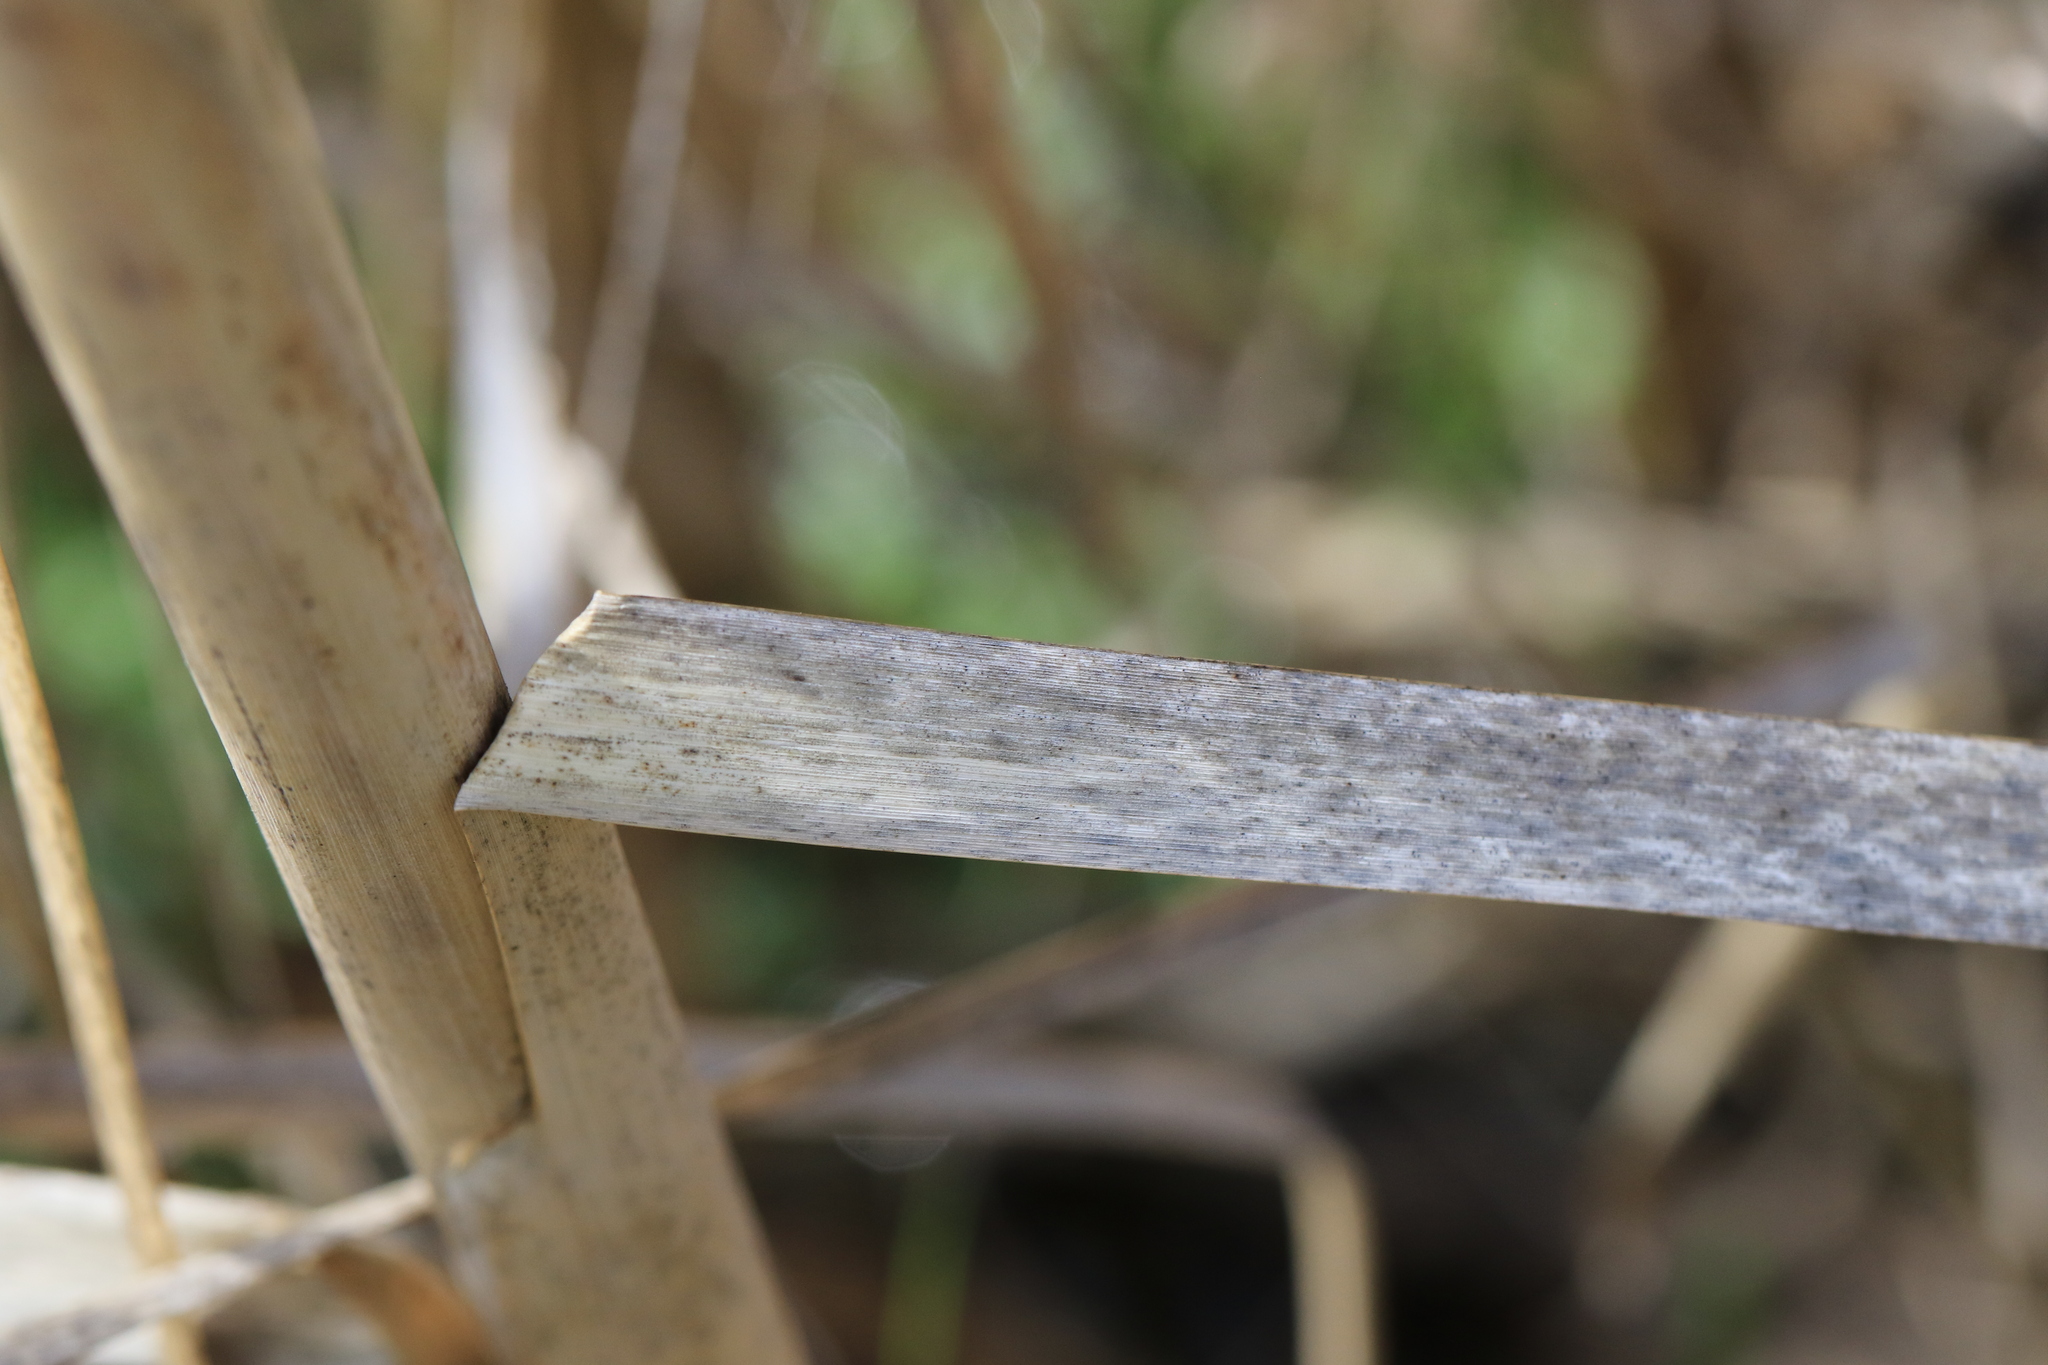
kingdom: Plantae
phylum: Tracheophyta
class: Liliopsida
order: Poales
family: Typhaceae
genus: Typha
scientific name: Typha latifolia
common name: Broadleaf cattail
